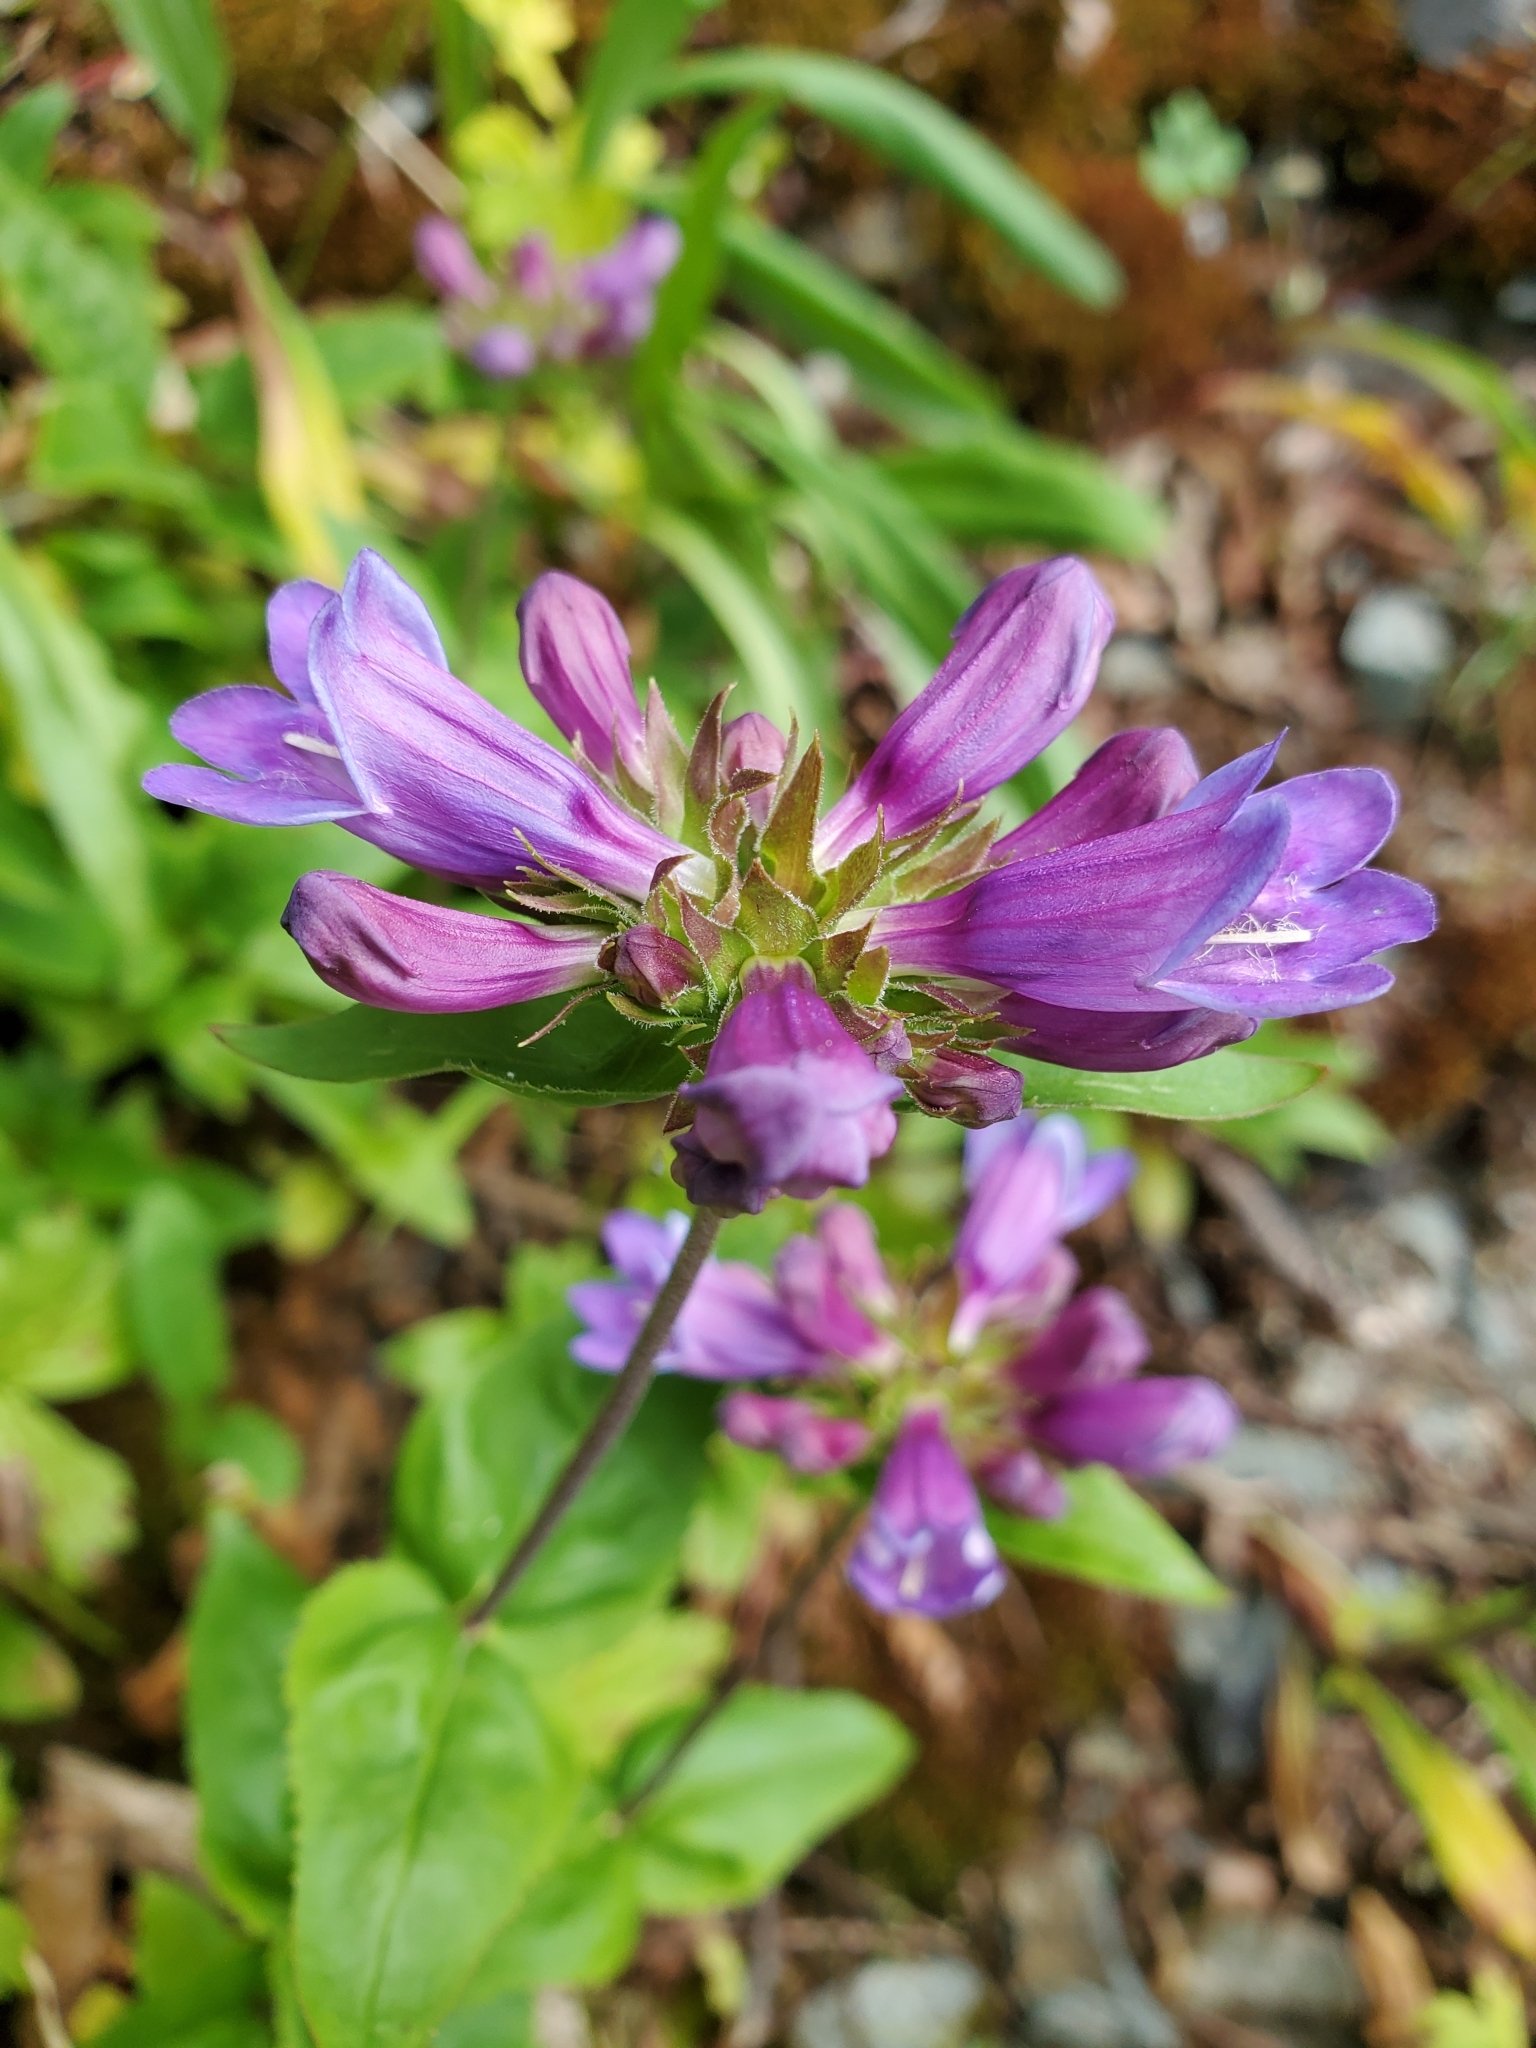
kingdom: Plantae
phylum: Tracheophyta
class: Magnoliopsida
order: Lamiales
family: Plantaginaceae
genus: Penstemon
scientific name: Penstemon serrulatus
